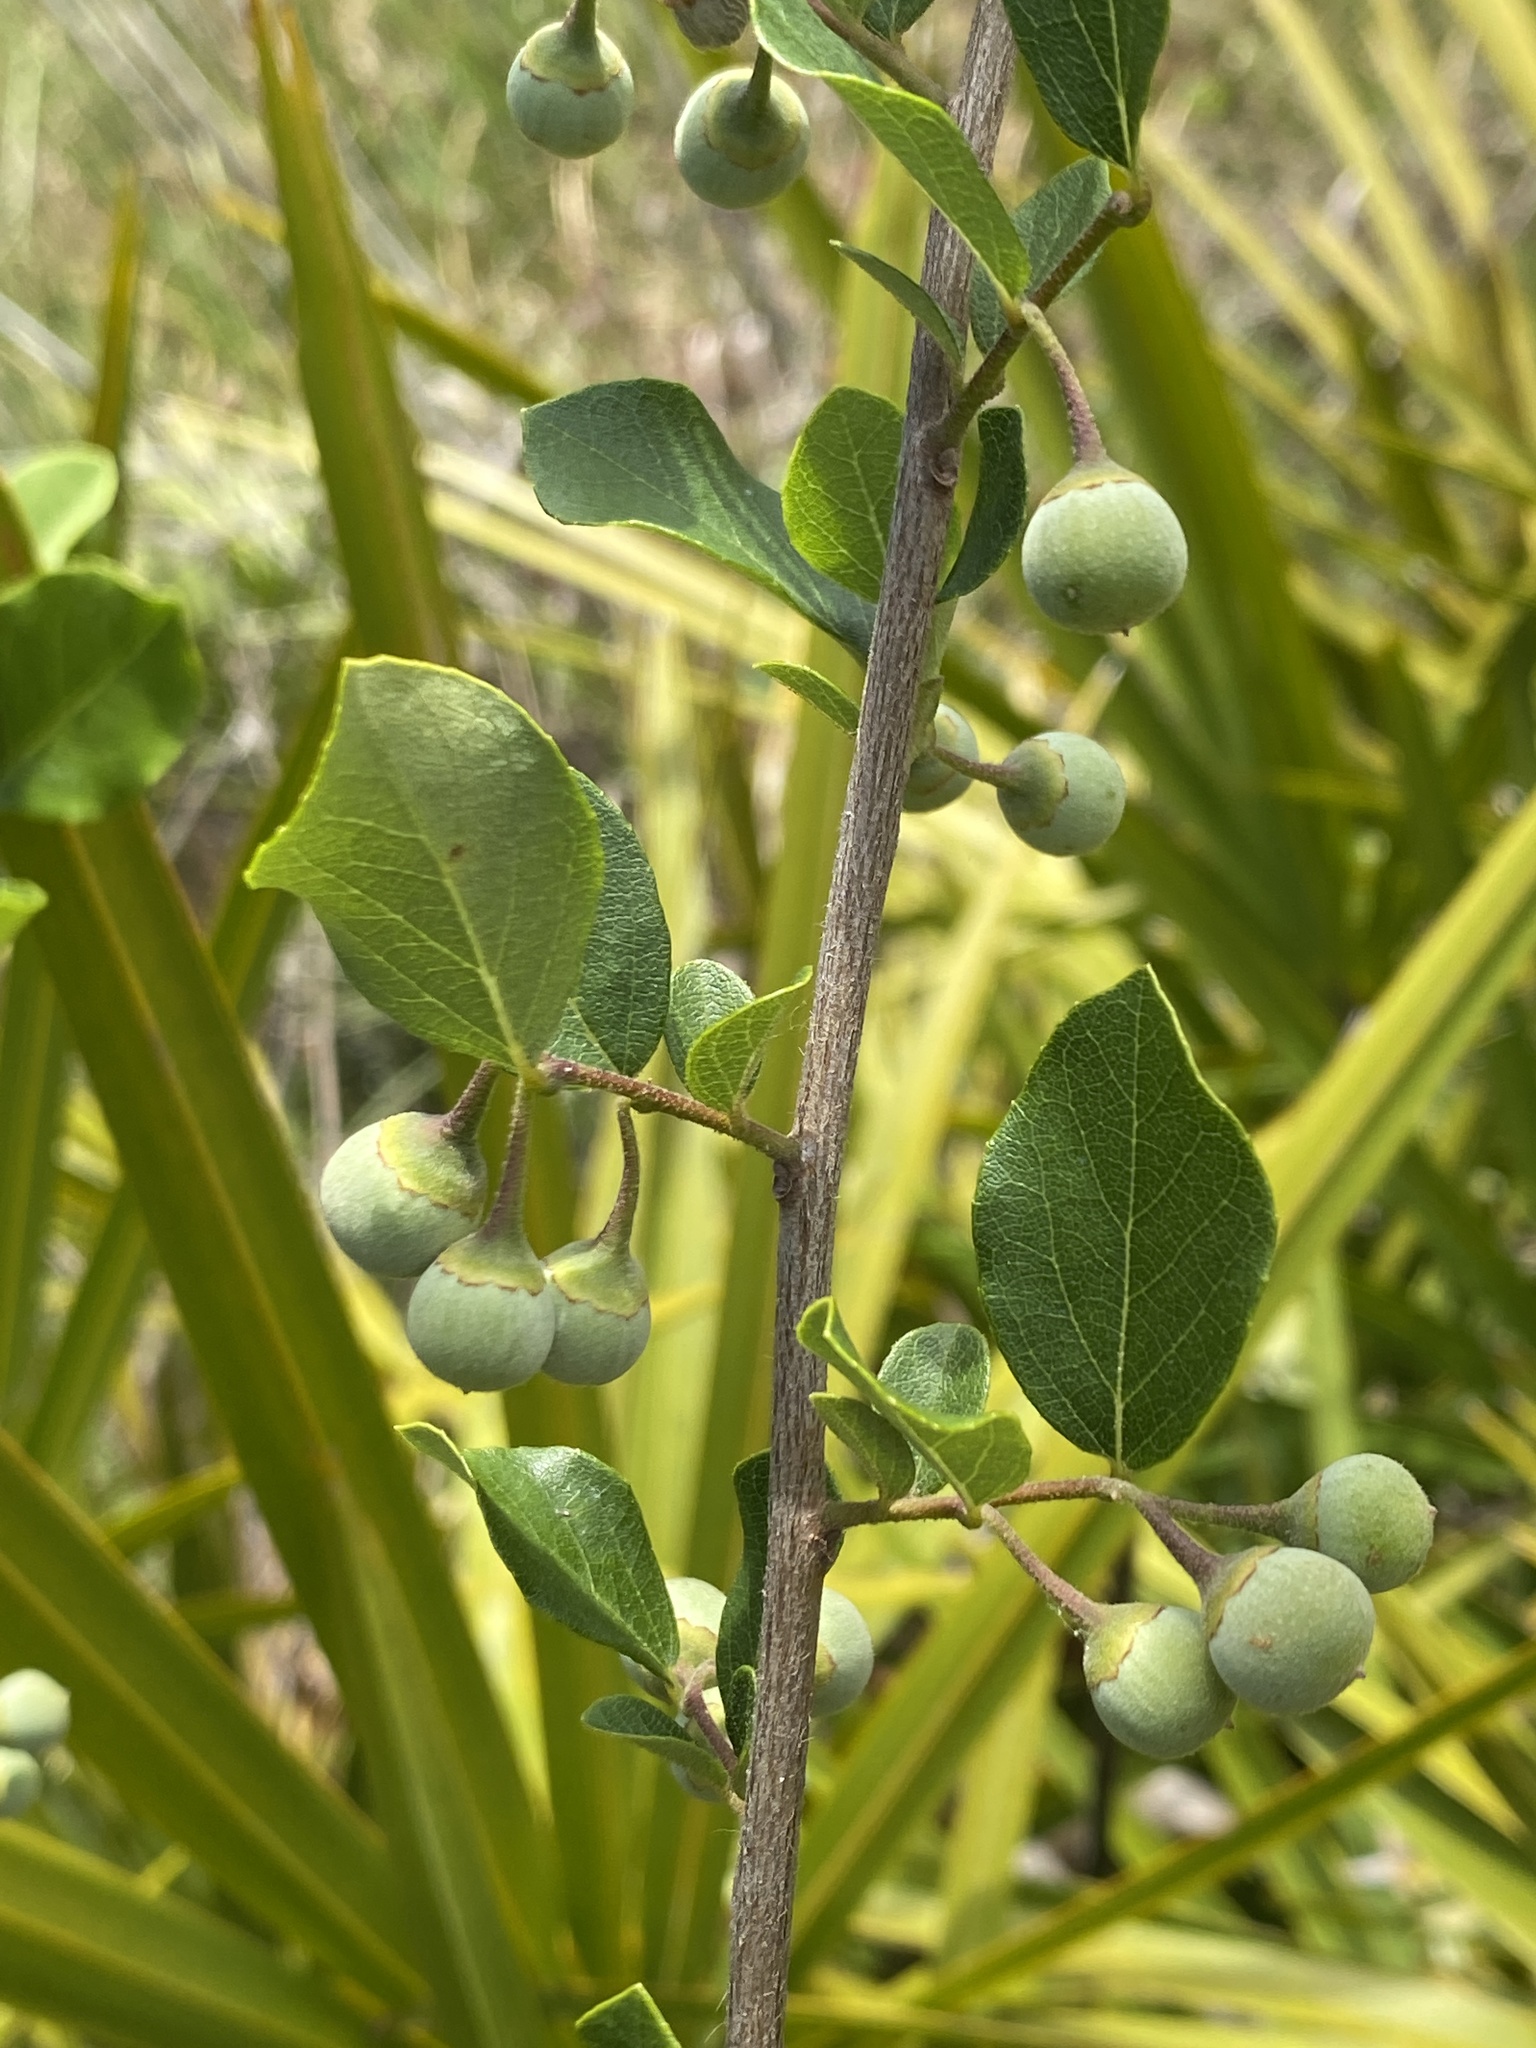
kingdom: Plantae
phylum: Tracheophyta
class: Magnoliopsida
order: Ericales
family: Styracaceae
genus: Styrax
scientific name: Styrax americanus
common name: American snowbell
